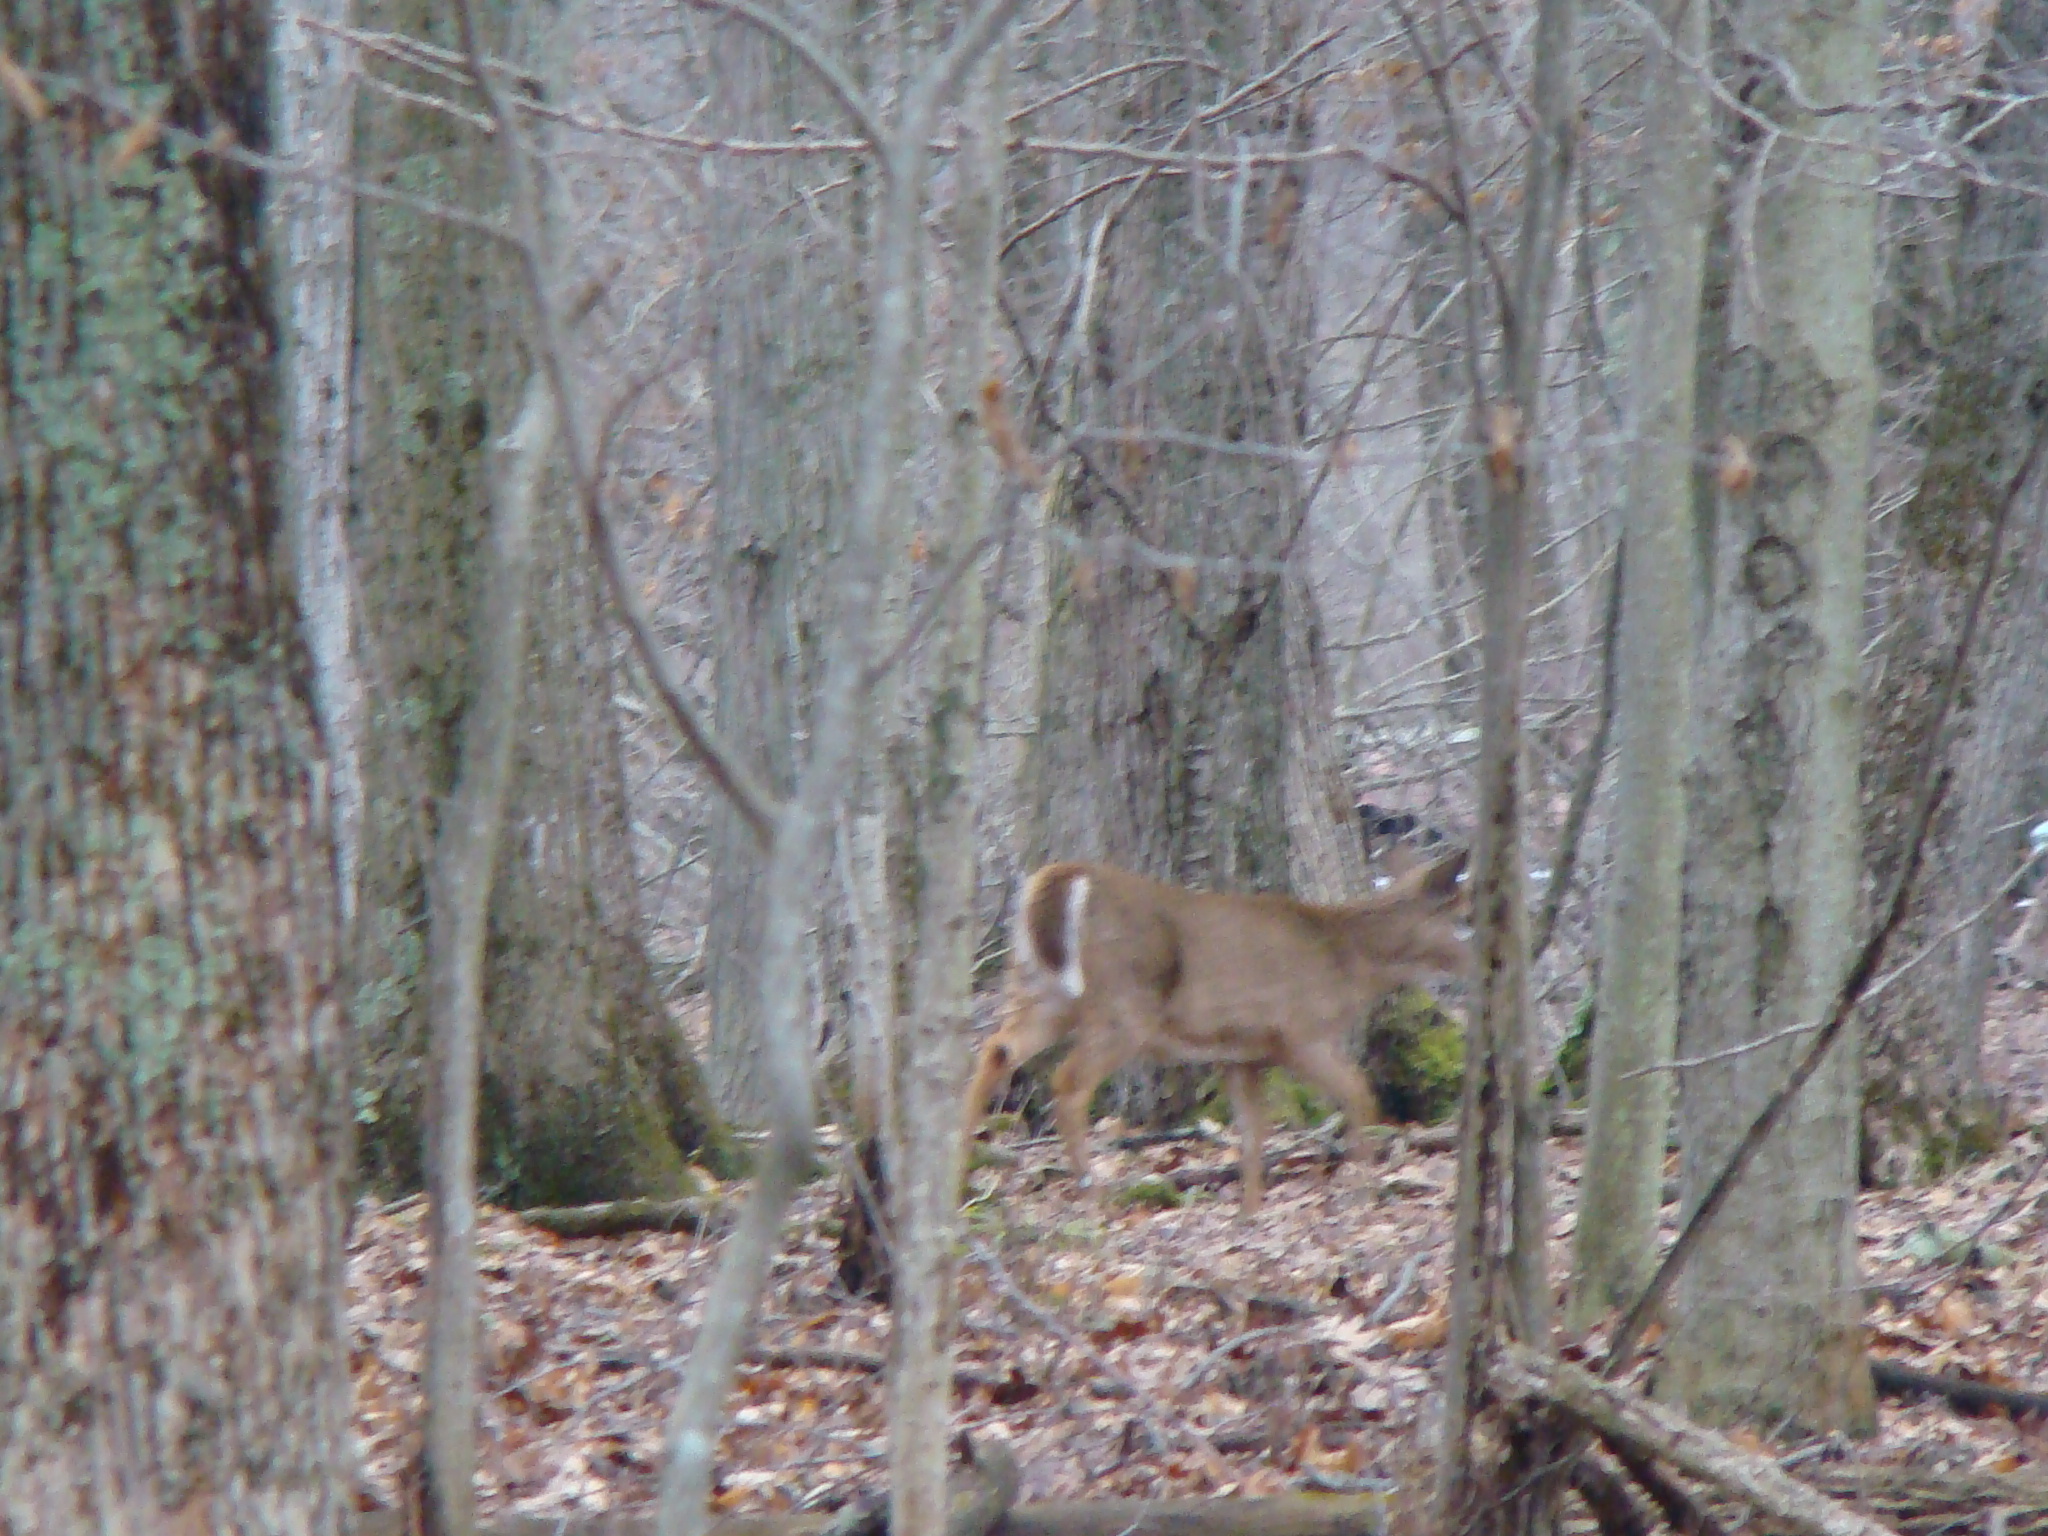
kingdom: Animalia
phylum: Chordata
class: Mammalia
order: Artiodactyla
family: Cervidae
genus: Odocoileus
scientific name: Odocoileus virginianus
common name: White-tailed deer
